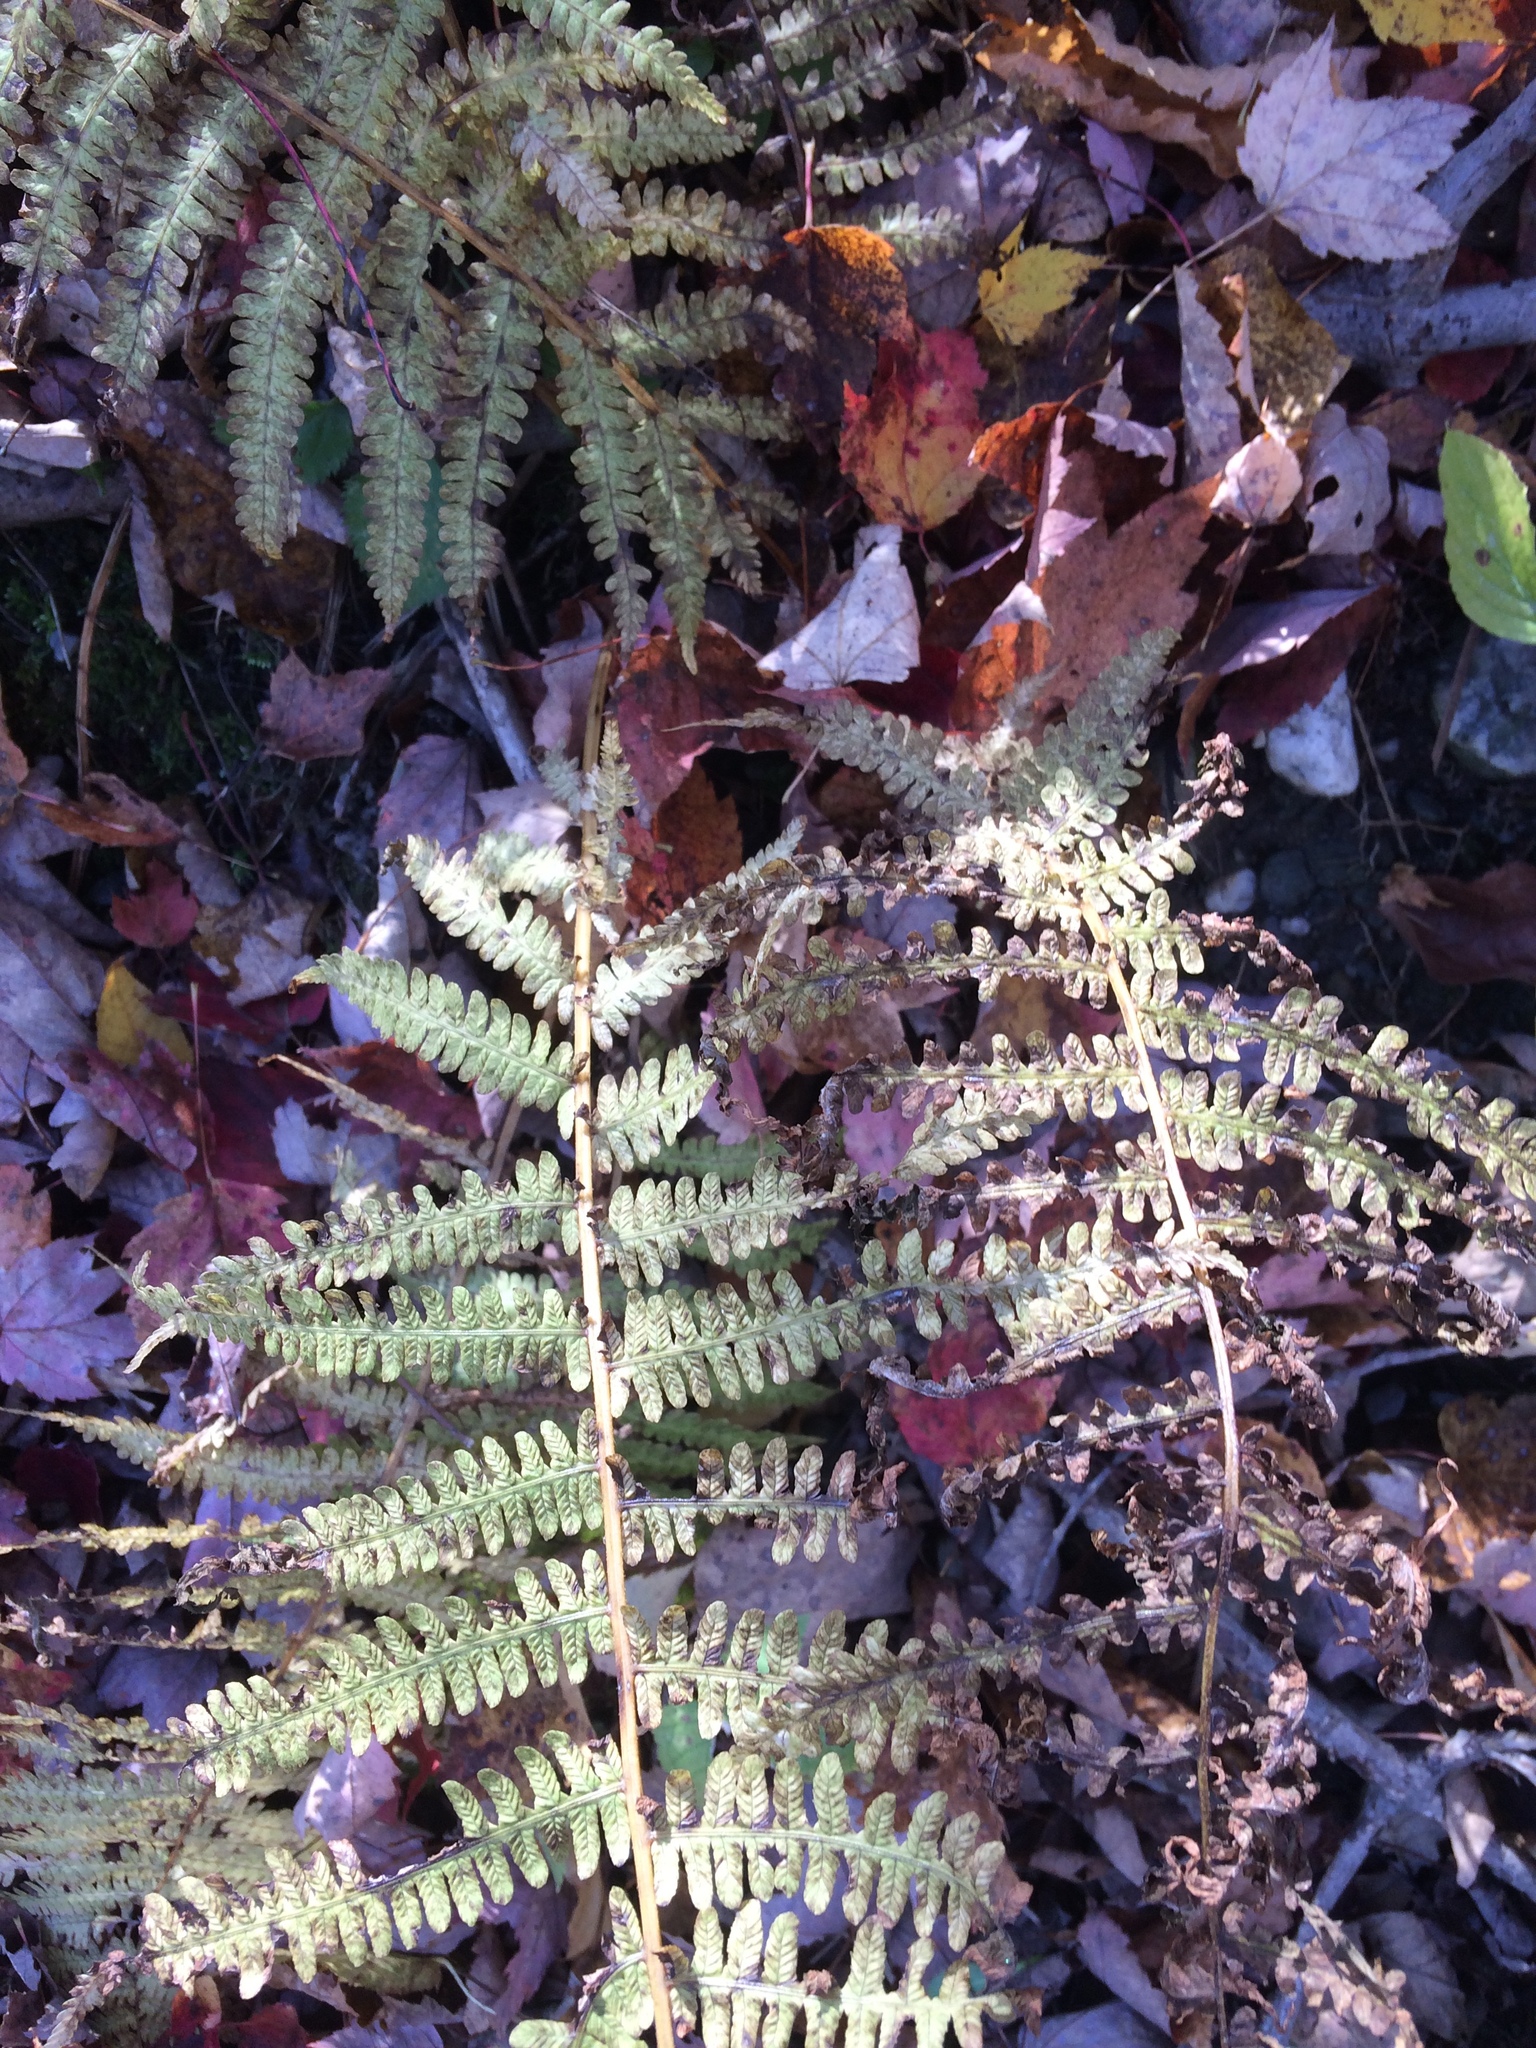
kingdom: Plantae
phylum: Tracheophyta
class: Polypodiopsida
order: Polypodiales
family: Onocleaceae
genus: Matteuccia
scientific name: Matteuccia struthiopteris
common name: Ostrich fern
